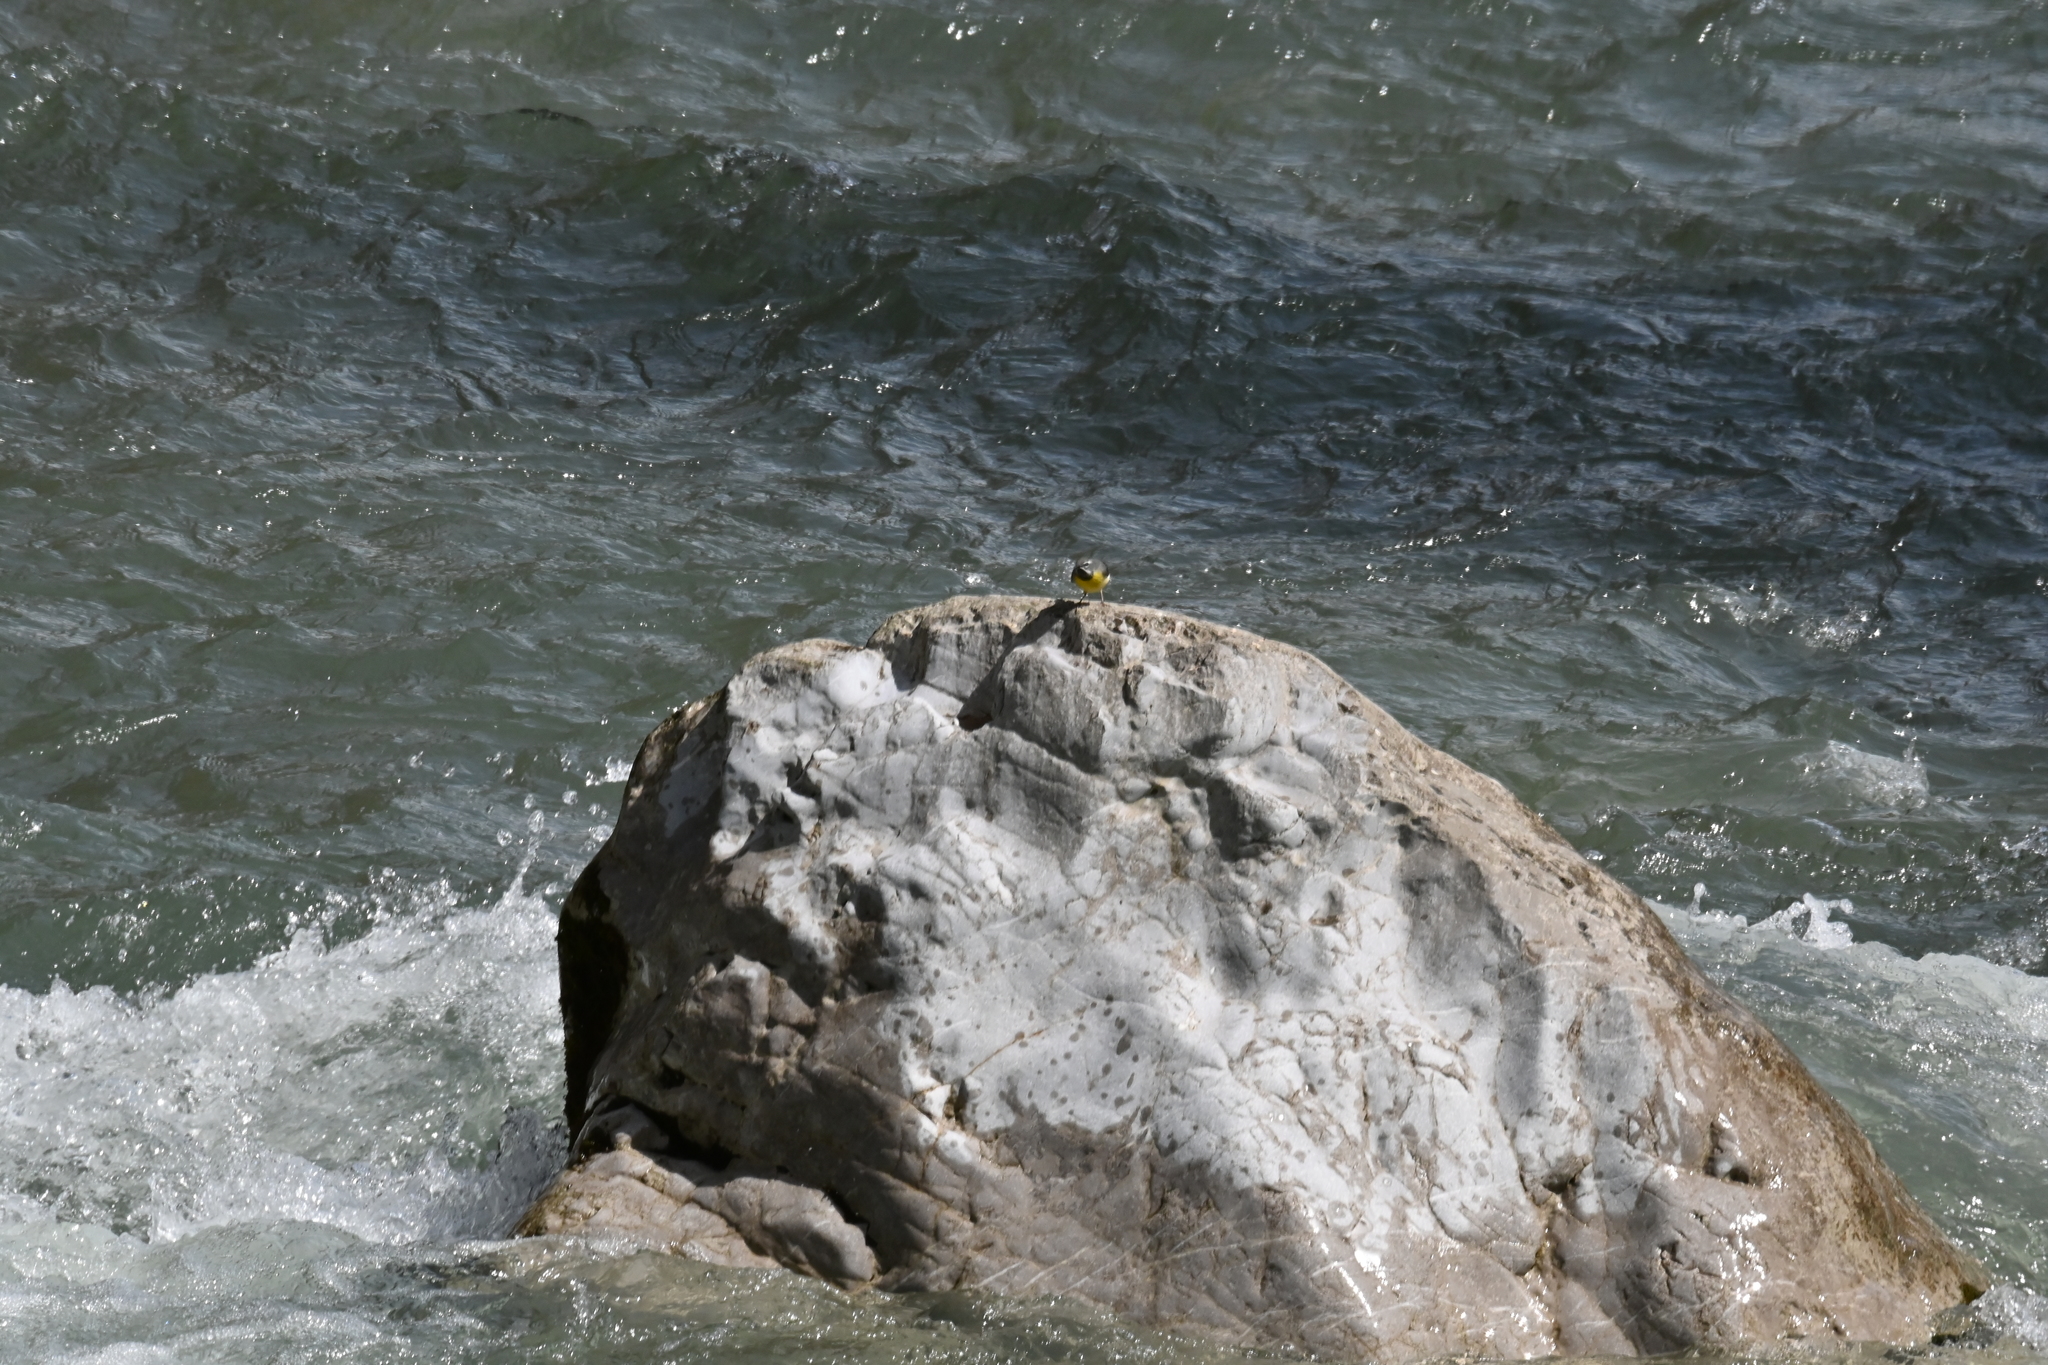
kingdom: Animalia
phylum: Chordata
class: Aves
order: Passeriformes
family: Motacillidae
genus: Motacilla
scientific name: Motacilla cinerea
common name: Grey wagtail
